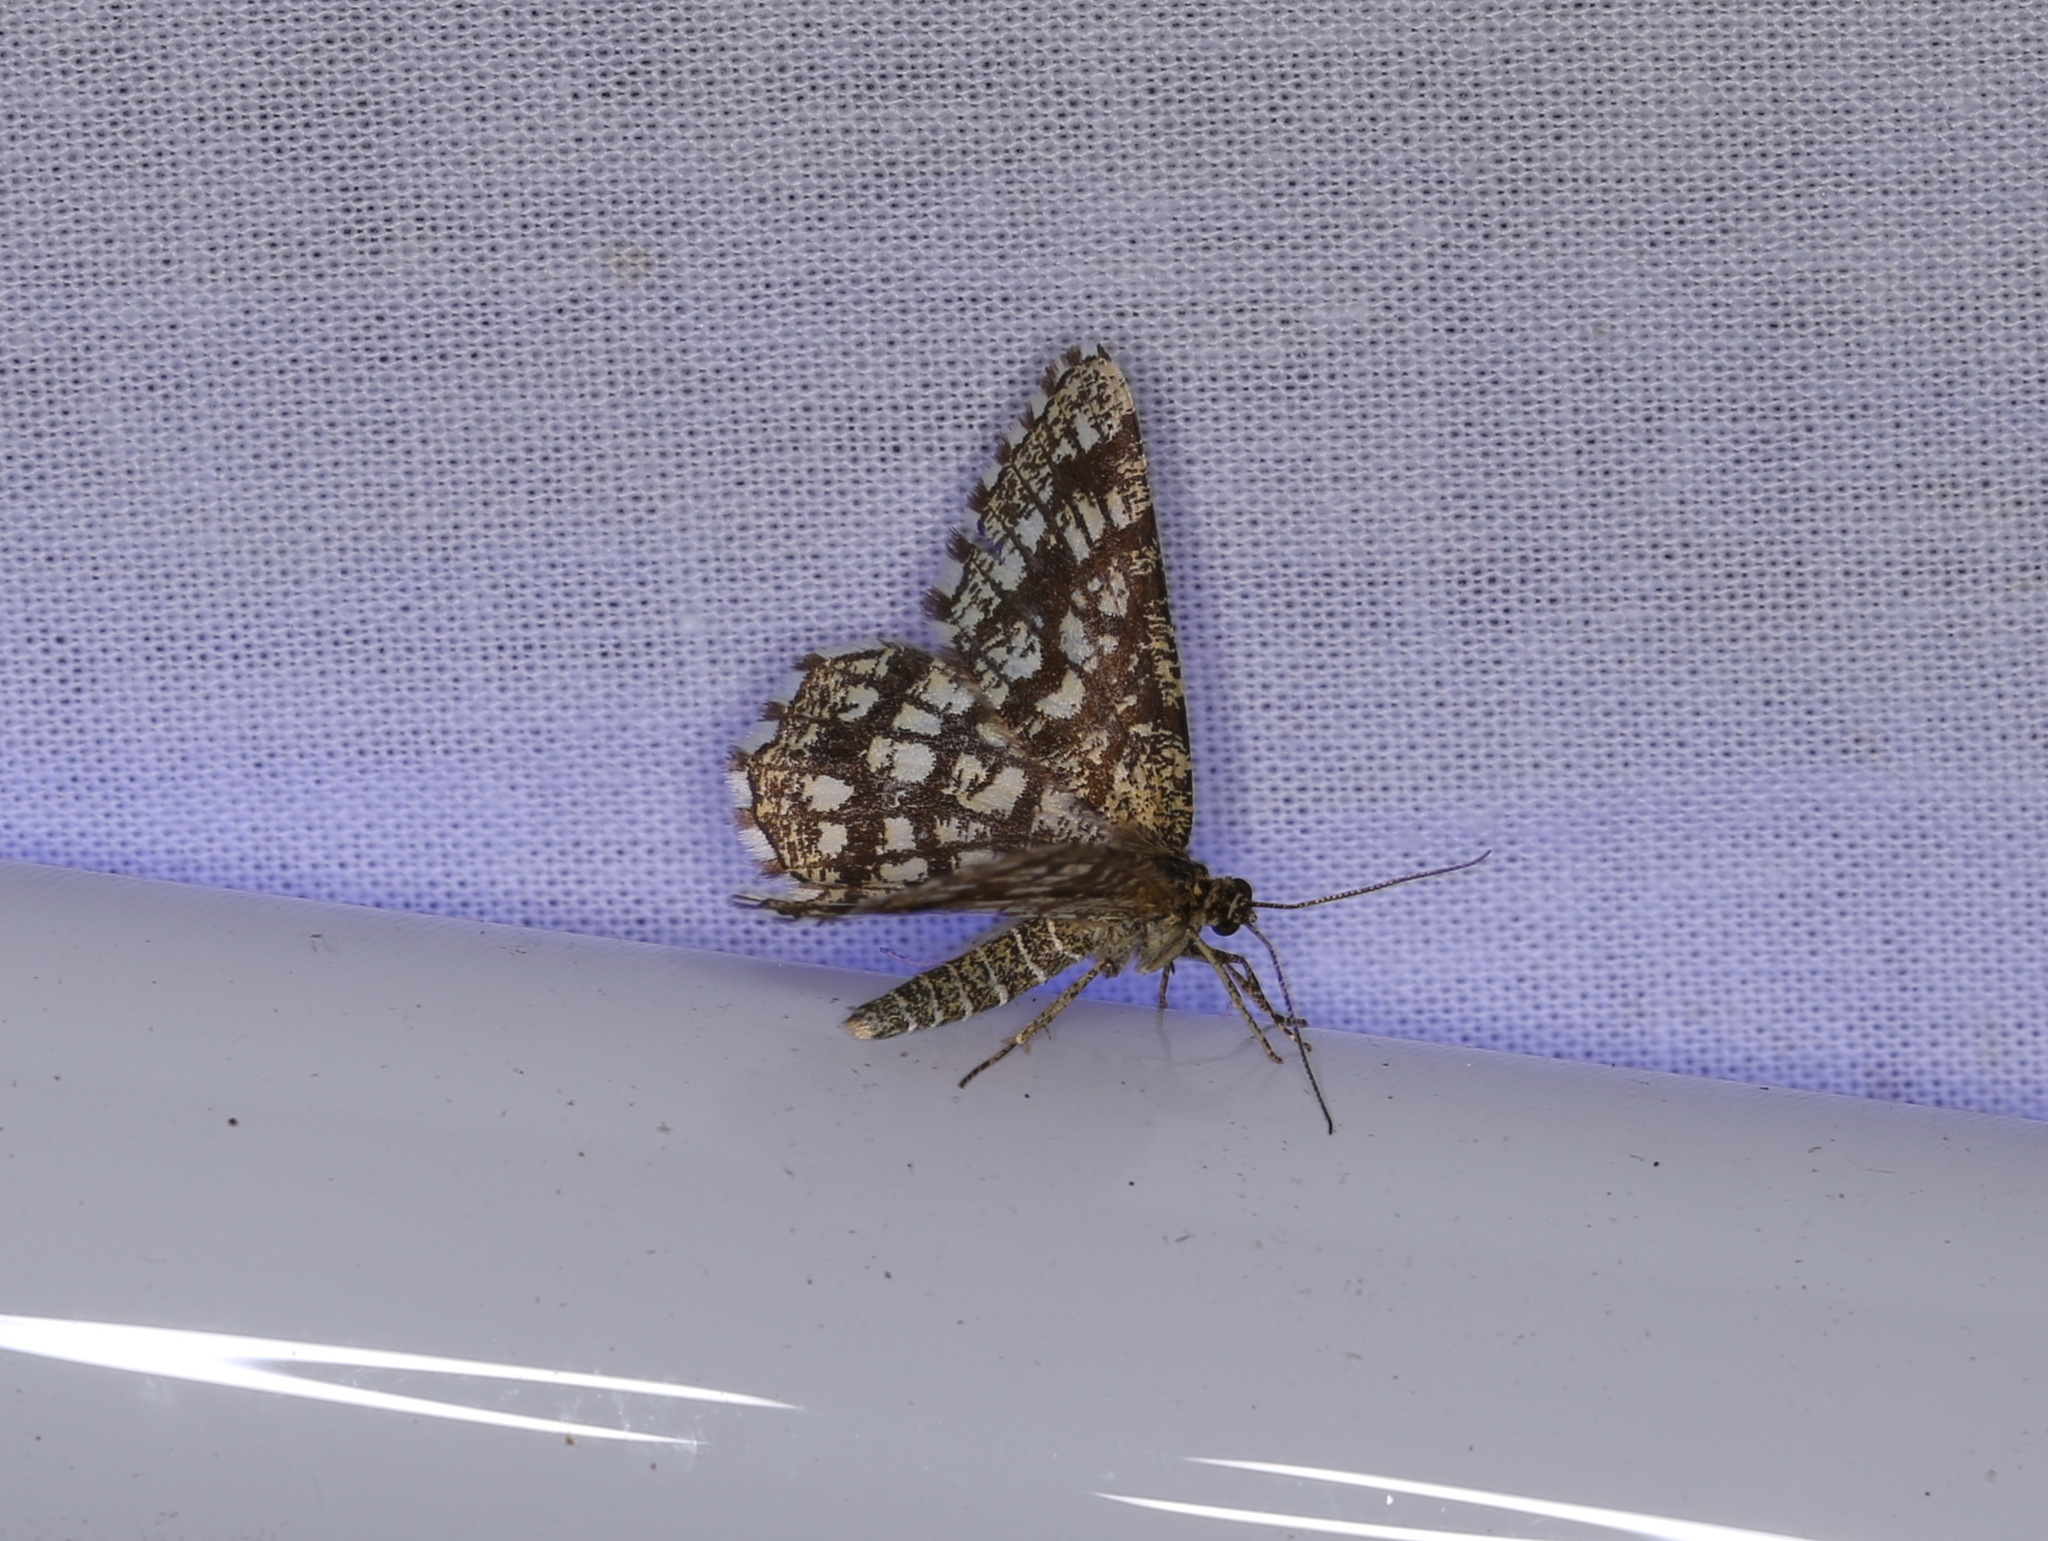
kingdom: Animalia
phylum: Arthropoda
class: Insecta
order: Lepidoptera
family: Geometridae
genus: Chiasmia
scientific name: Chiasmia clathrata
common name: Latticed heath
